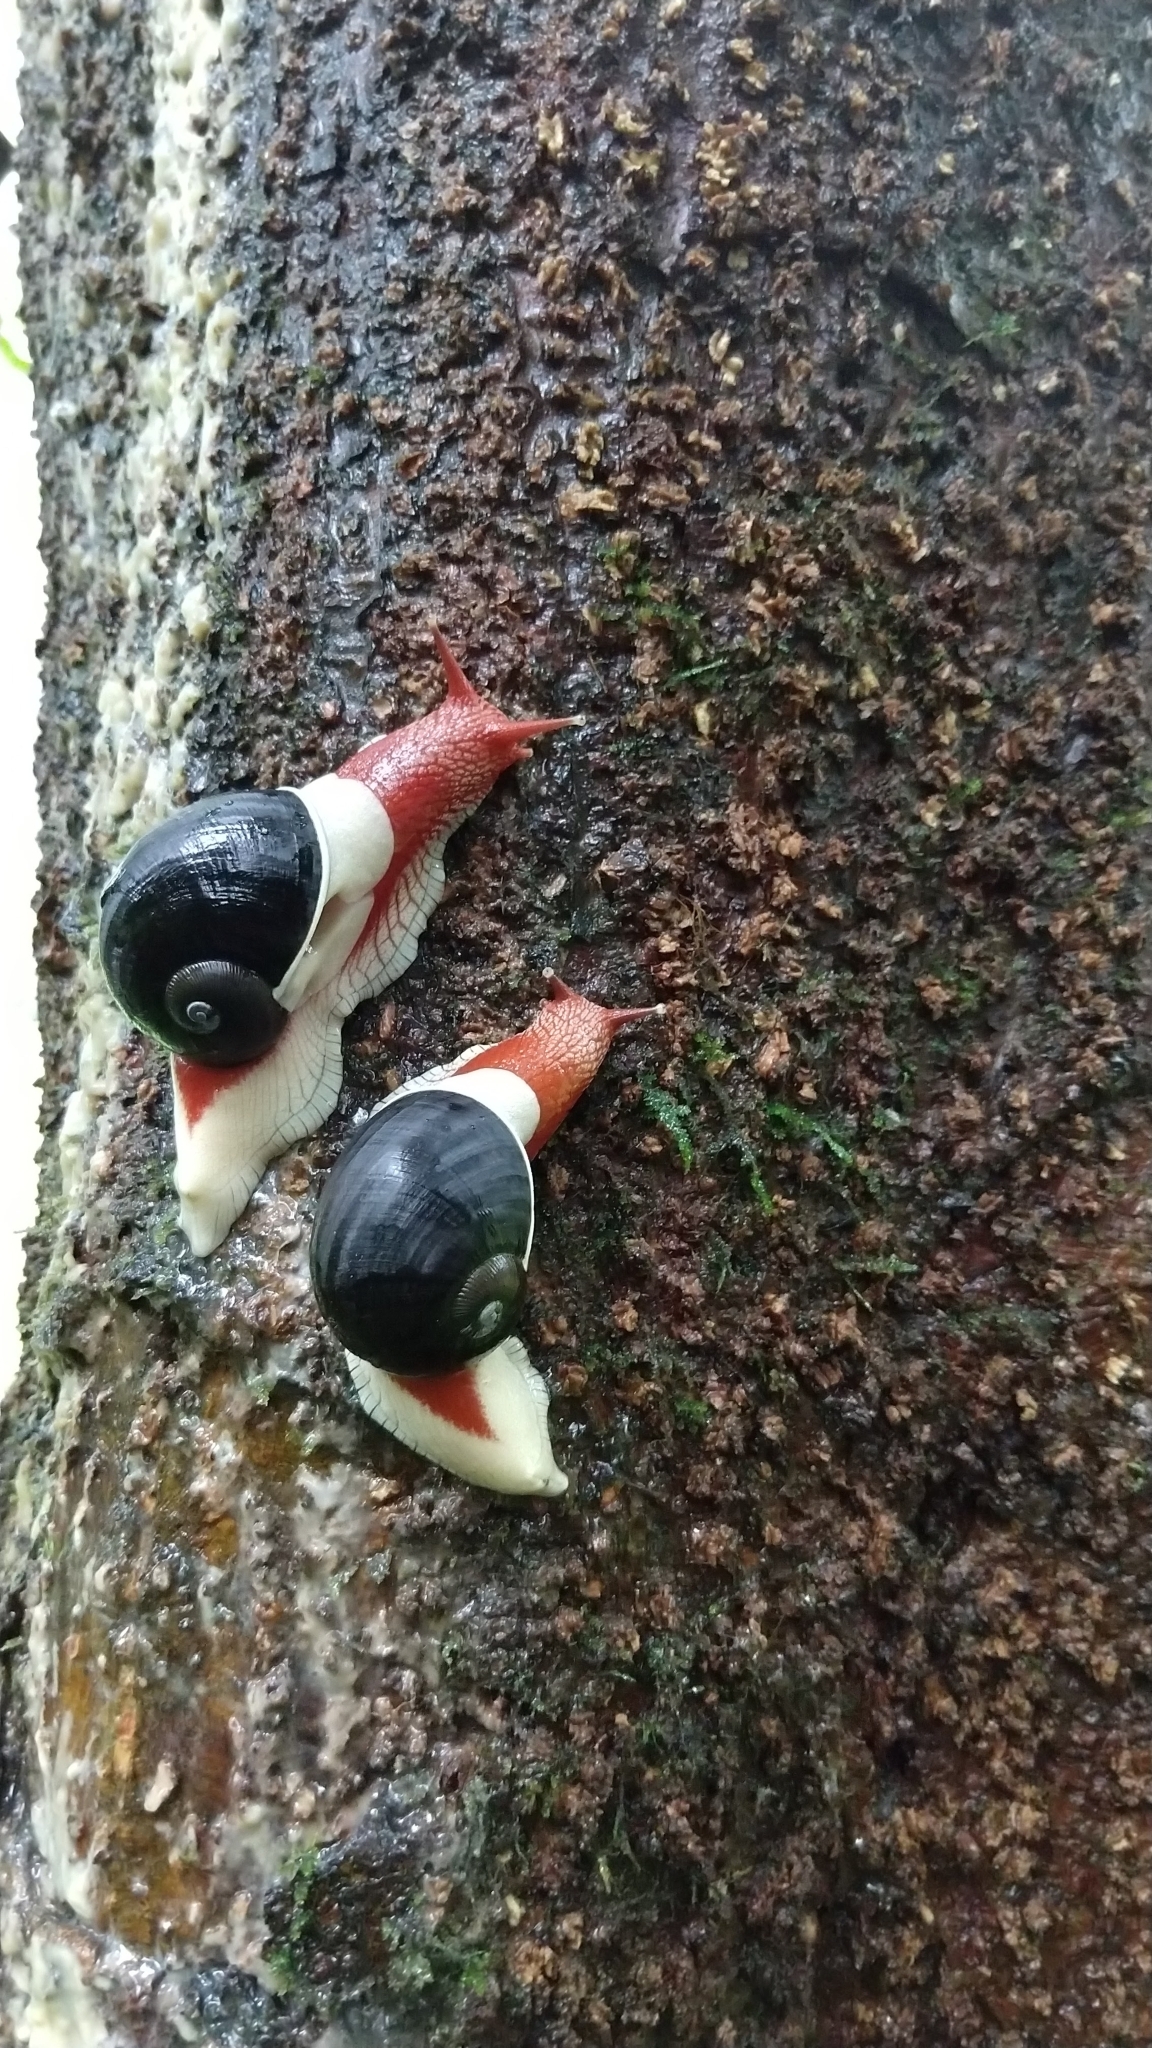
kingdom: Animalia
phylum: Mollusca
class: Gastropoda
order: Stylommatophora
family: Ariophantidae
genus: Indrella
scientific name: Indrella ampulla
